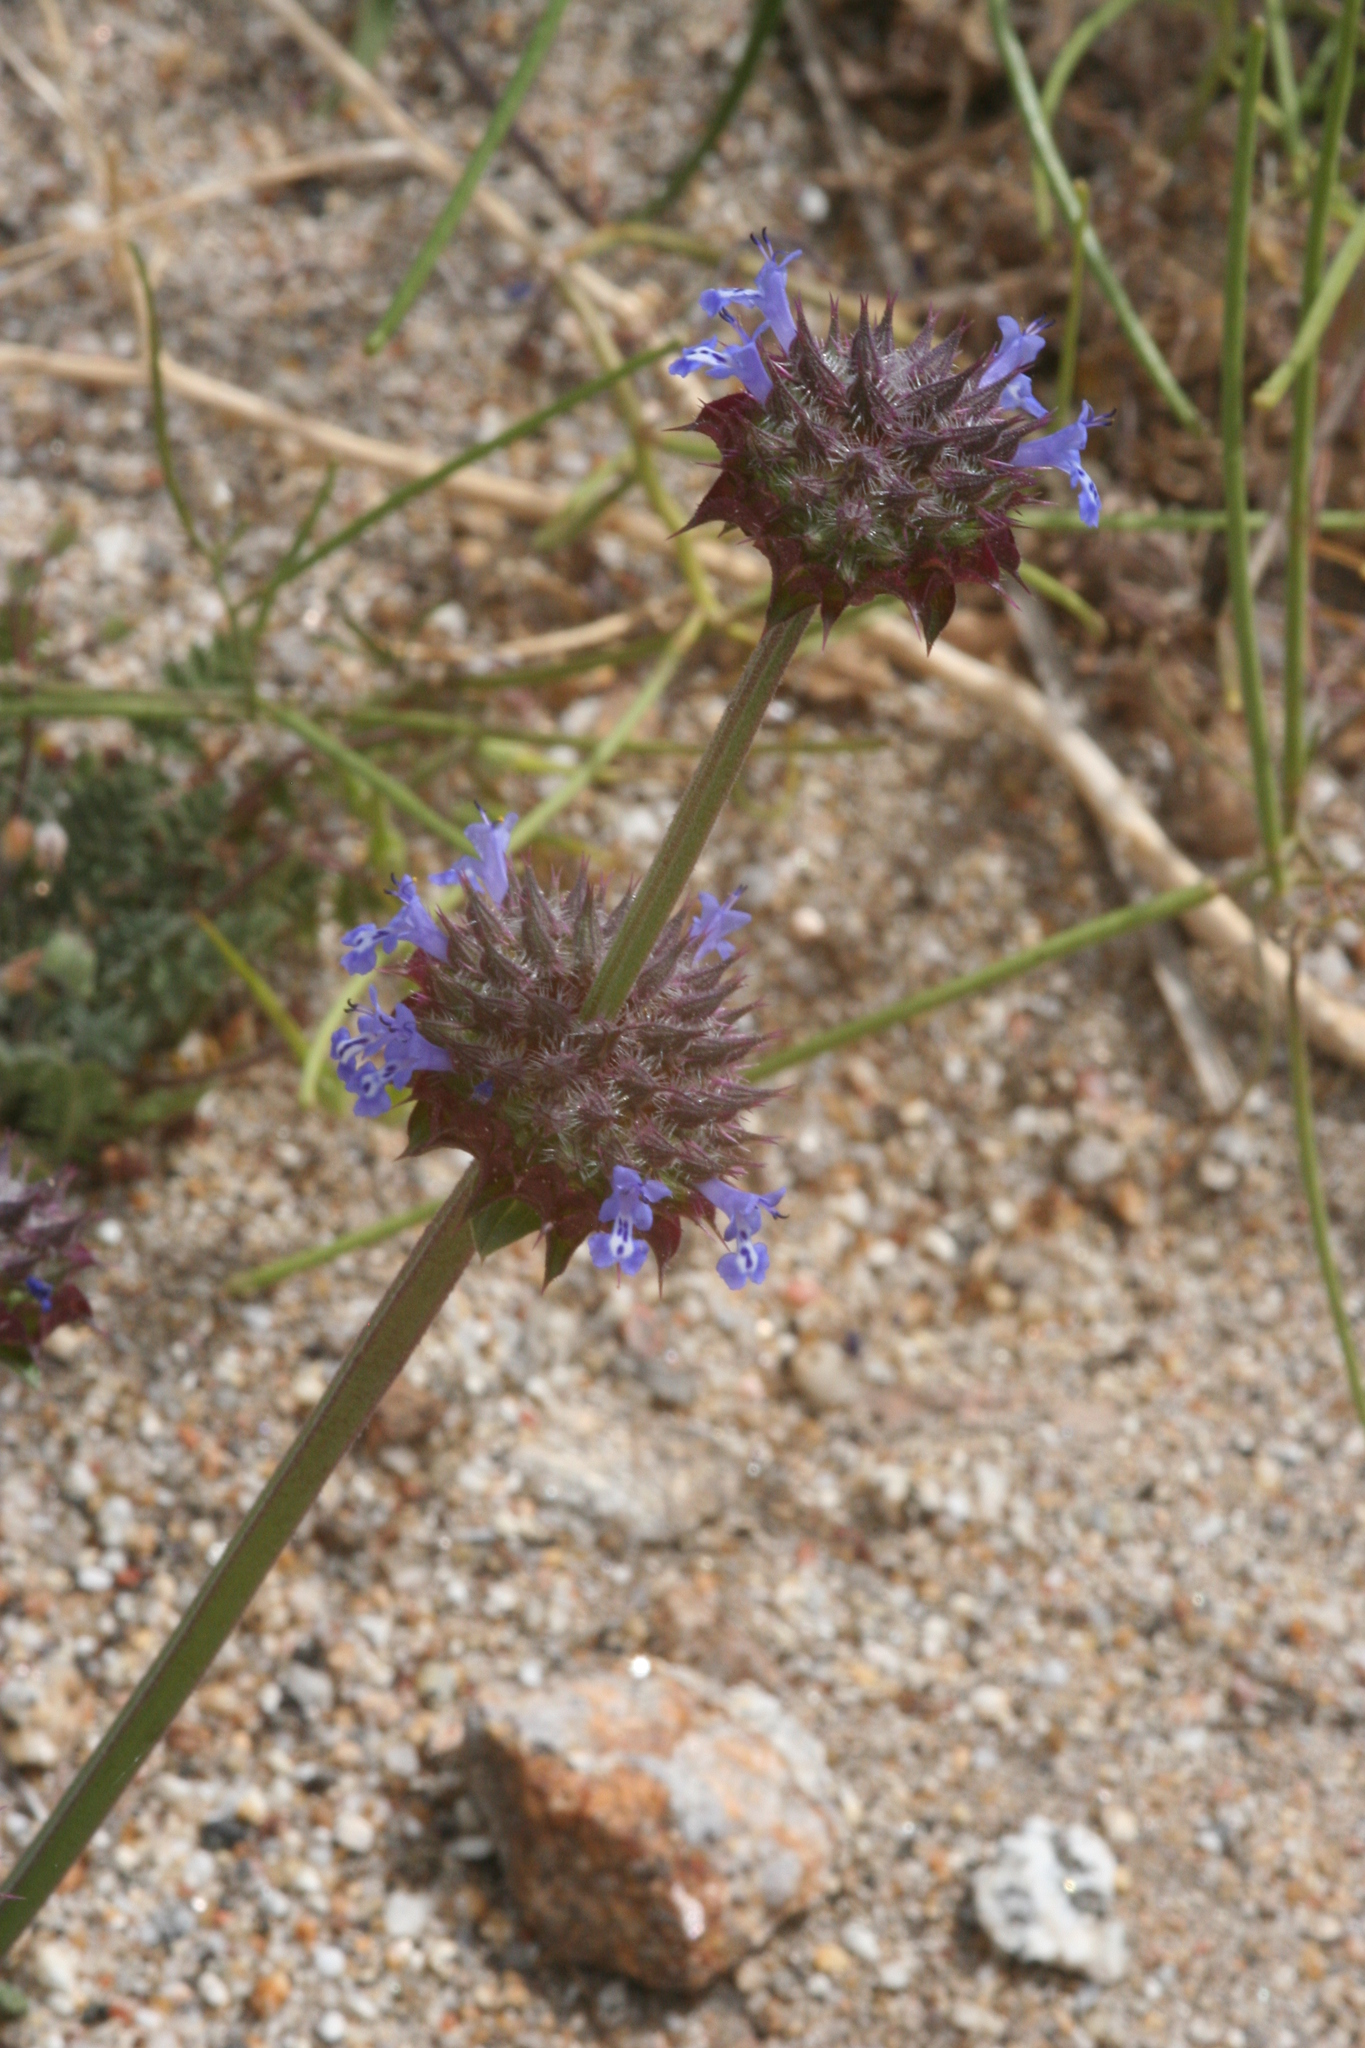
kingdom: Plantae
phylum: Tracheophyta
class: Magnoliopsida
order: Lamiales
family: Lamiaceae
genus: Salvia
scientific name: Salvia columbariae
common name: Chia
